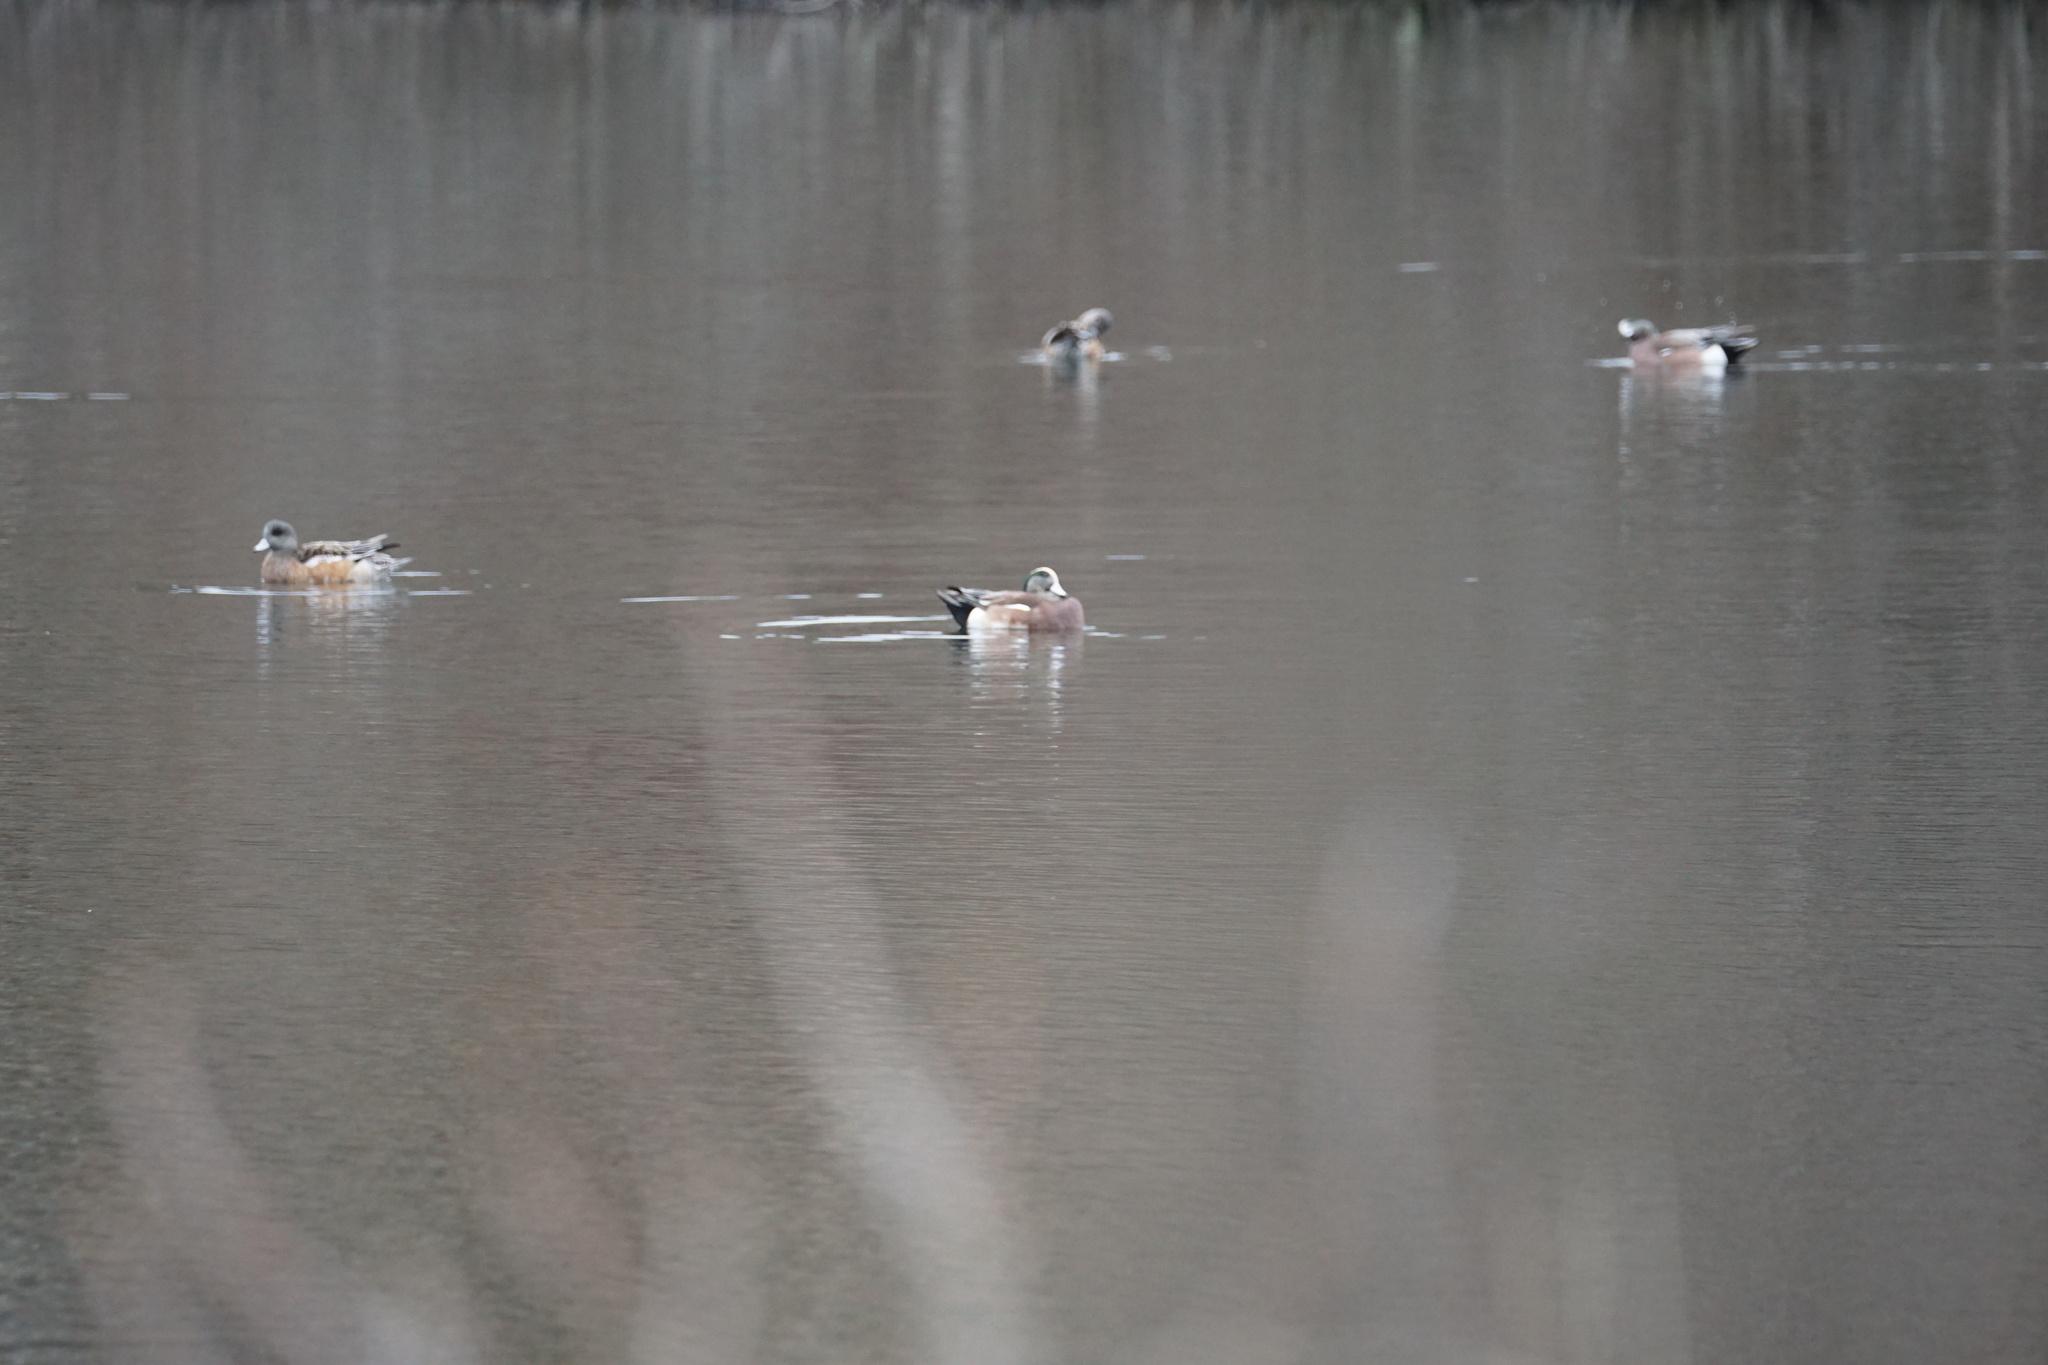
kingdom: Animalia
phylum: Chordata
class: Aves
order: Anseriformes
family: Anatidae
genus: Mareca
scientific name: Mareca americana
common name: American wigeon
